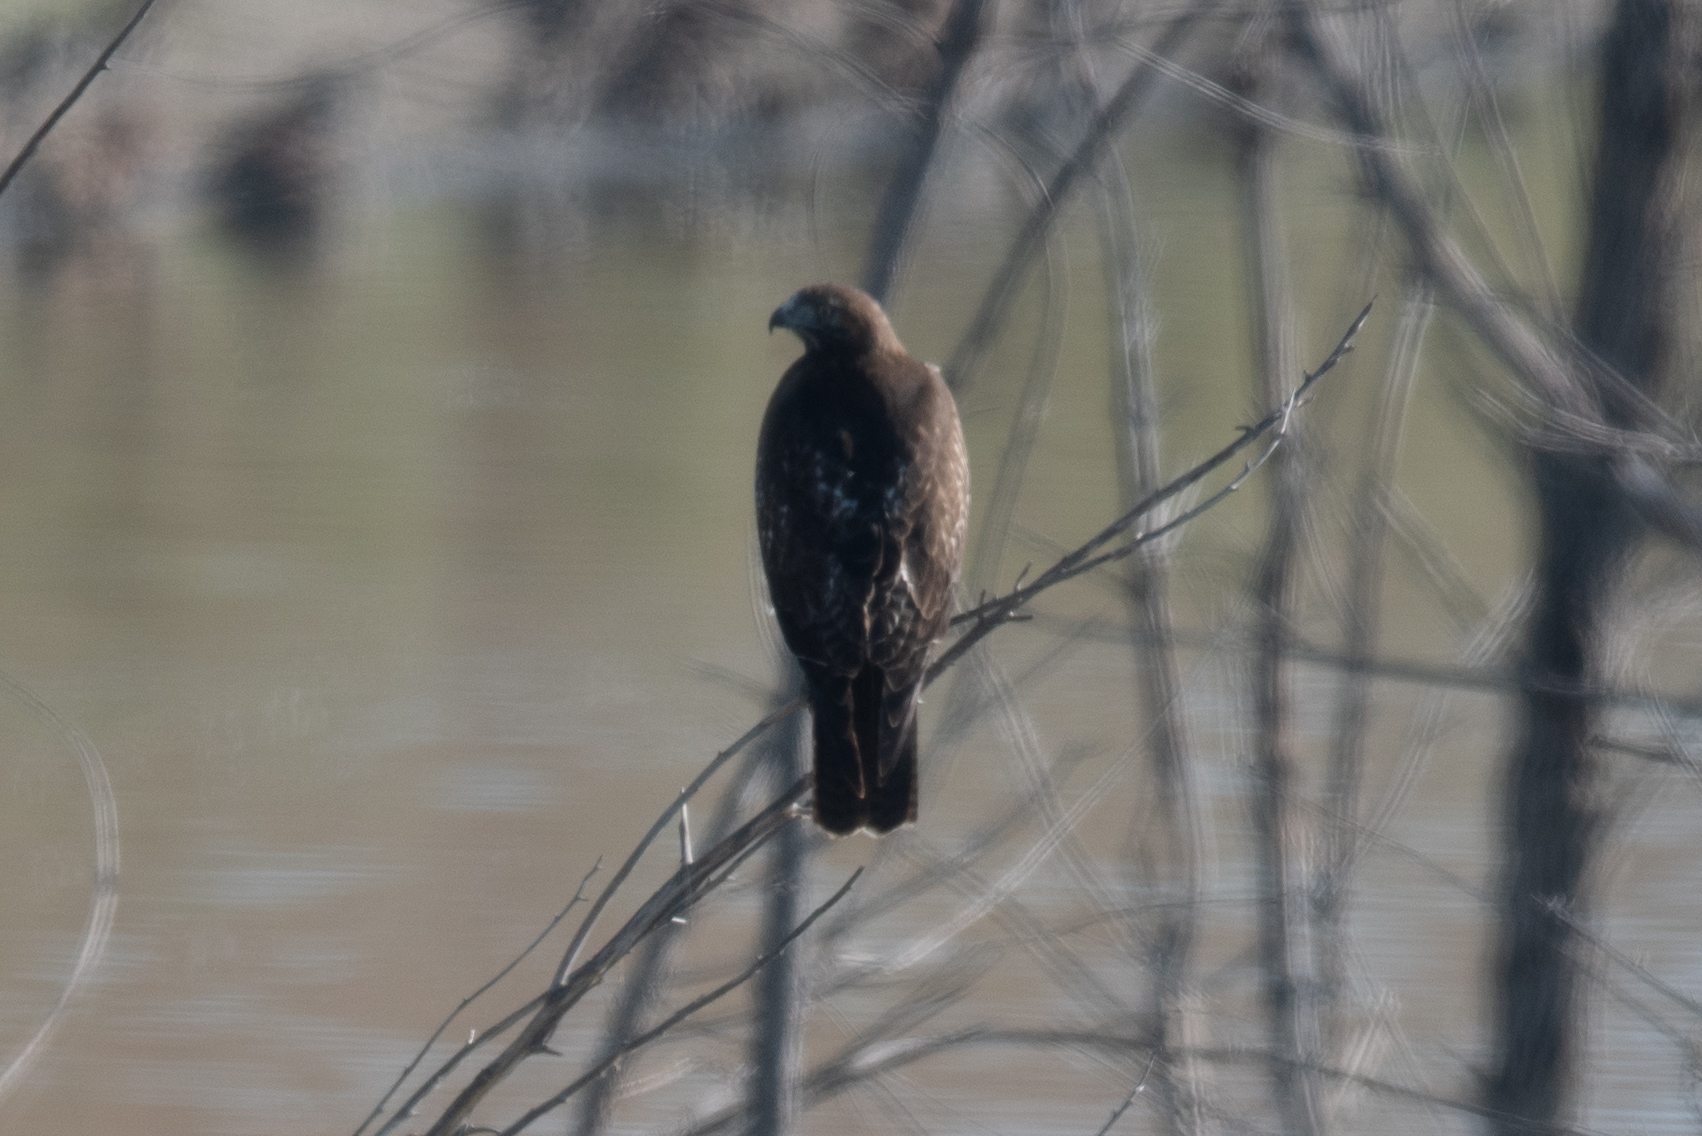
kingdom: Animalia
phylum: Chordata
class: Aves
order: Accipitriformes
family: Accipitridae
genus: Buteo
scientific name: Buteo jamaicensis
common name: Red-tailed hawk
